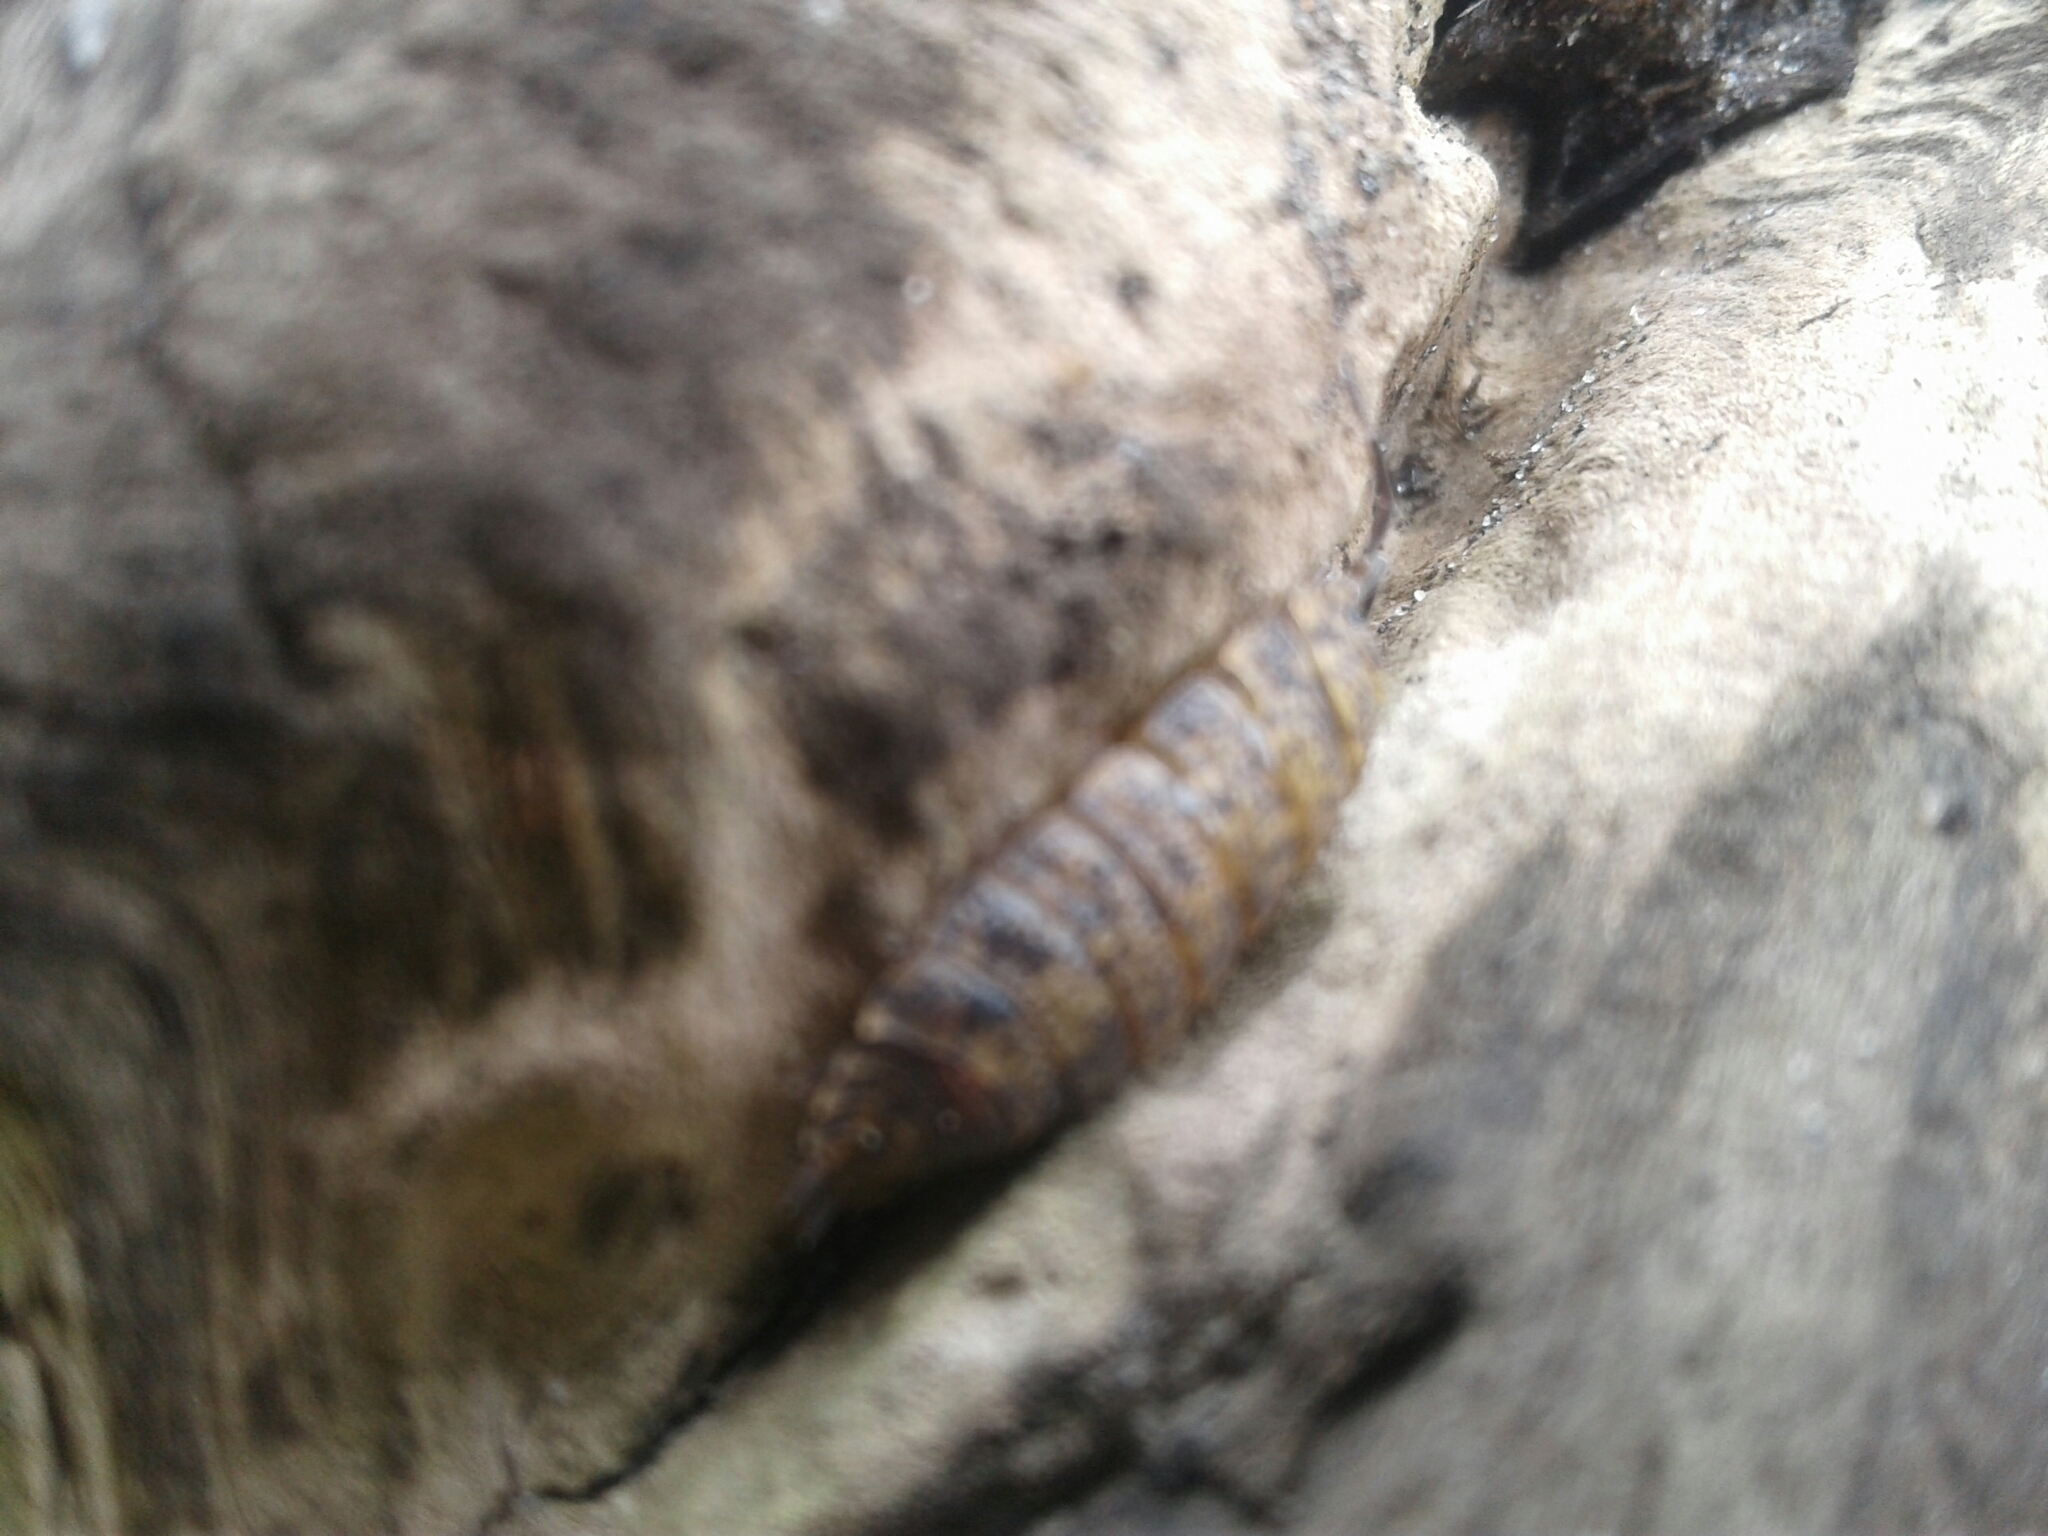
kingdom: Animalia
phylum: Arthropoda
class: Malacostraca
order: Isopoda
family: Porcellionidae
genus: Porcellio
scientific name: Porcellio scaber
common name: Common rough woodlouse
